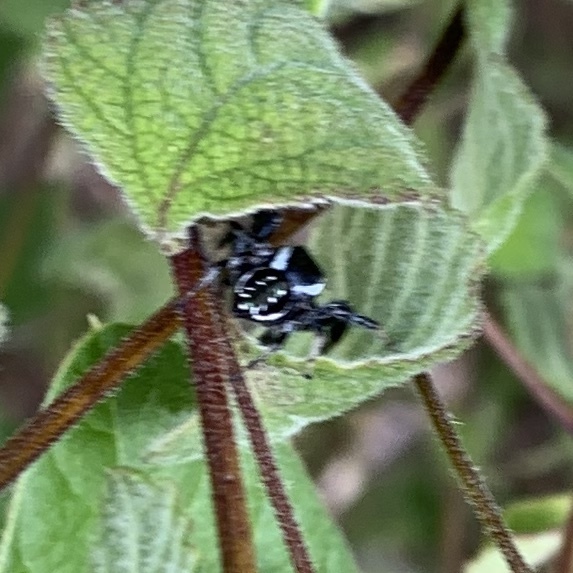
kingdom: Animalia
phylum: Arthropoda
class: Arachnida
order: Araneae
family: Salticidae
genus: Paraphidippus
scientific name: Paraphidippus aurantius
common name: Jumping spiders
